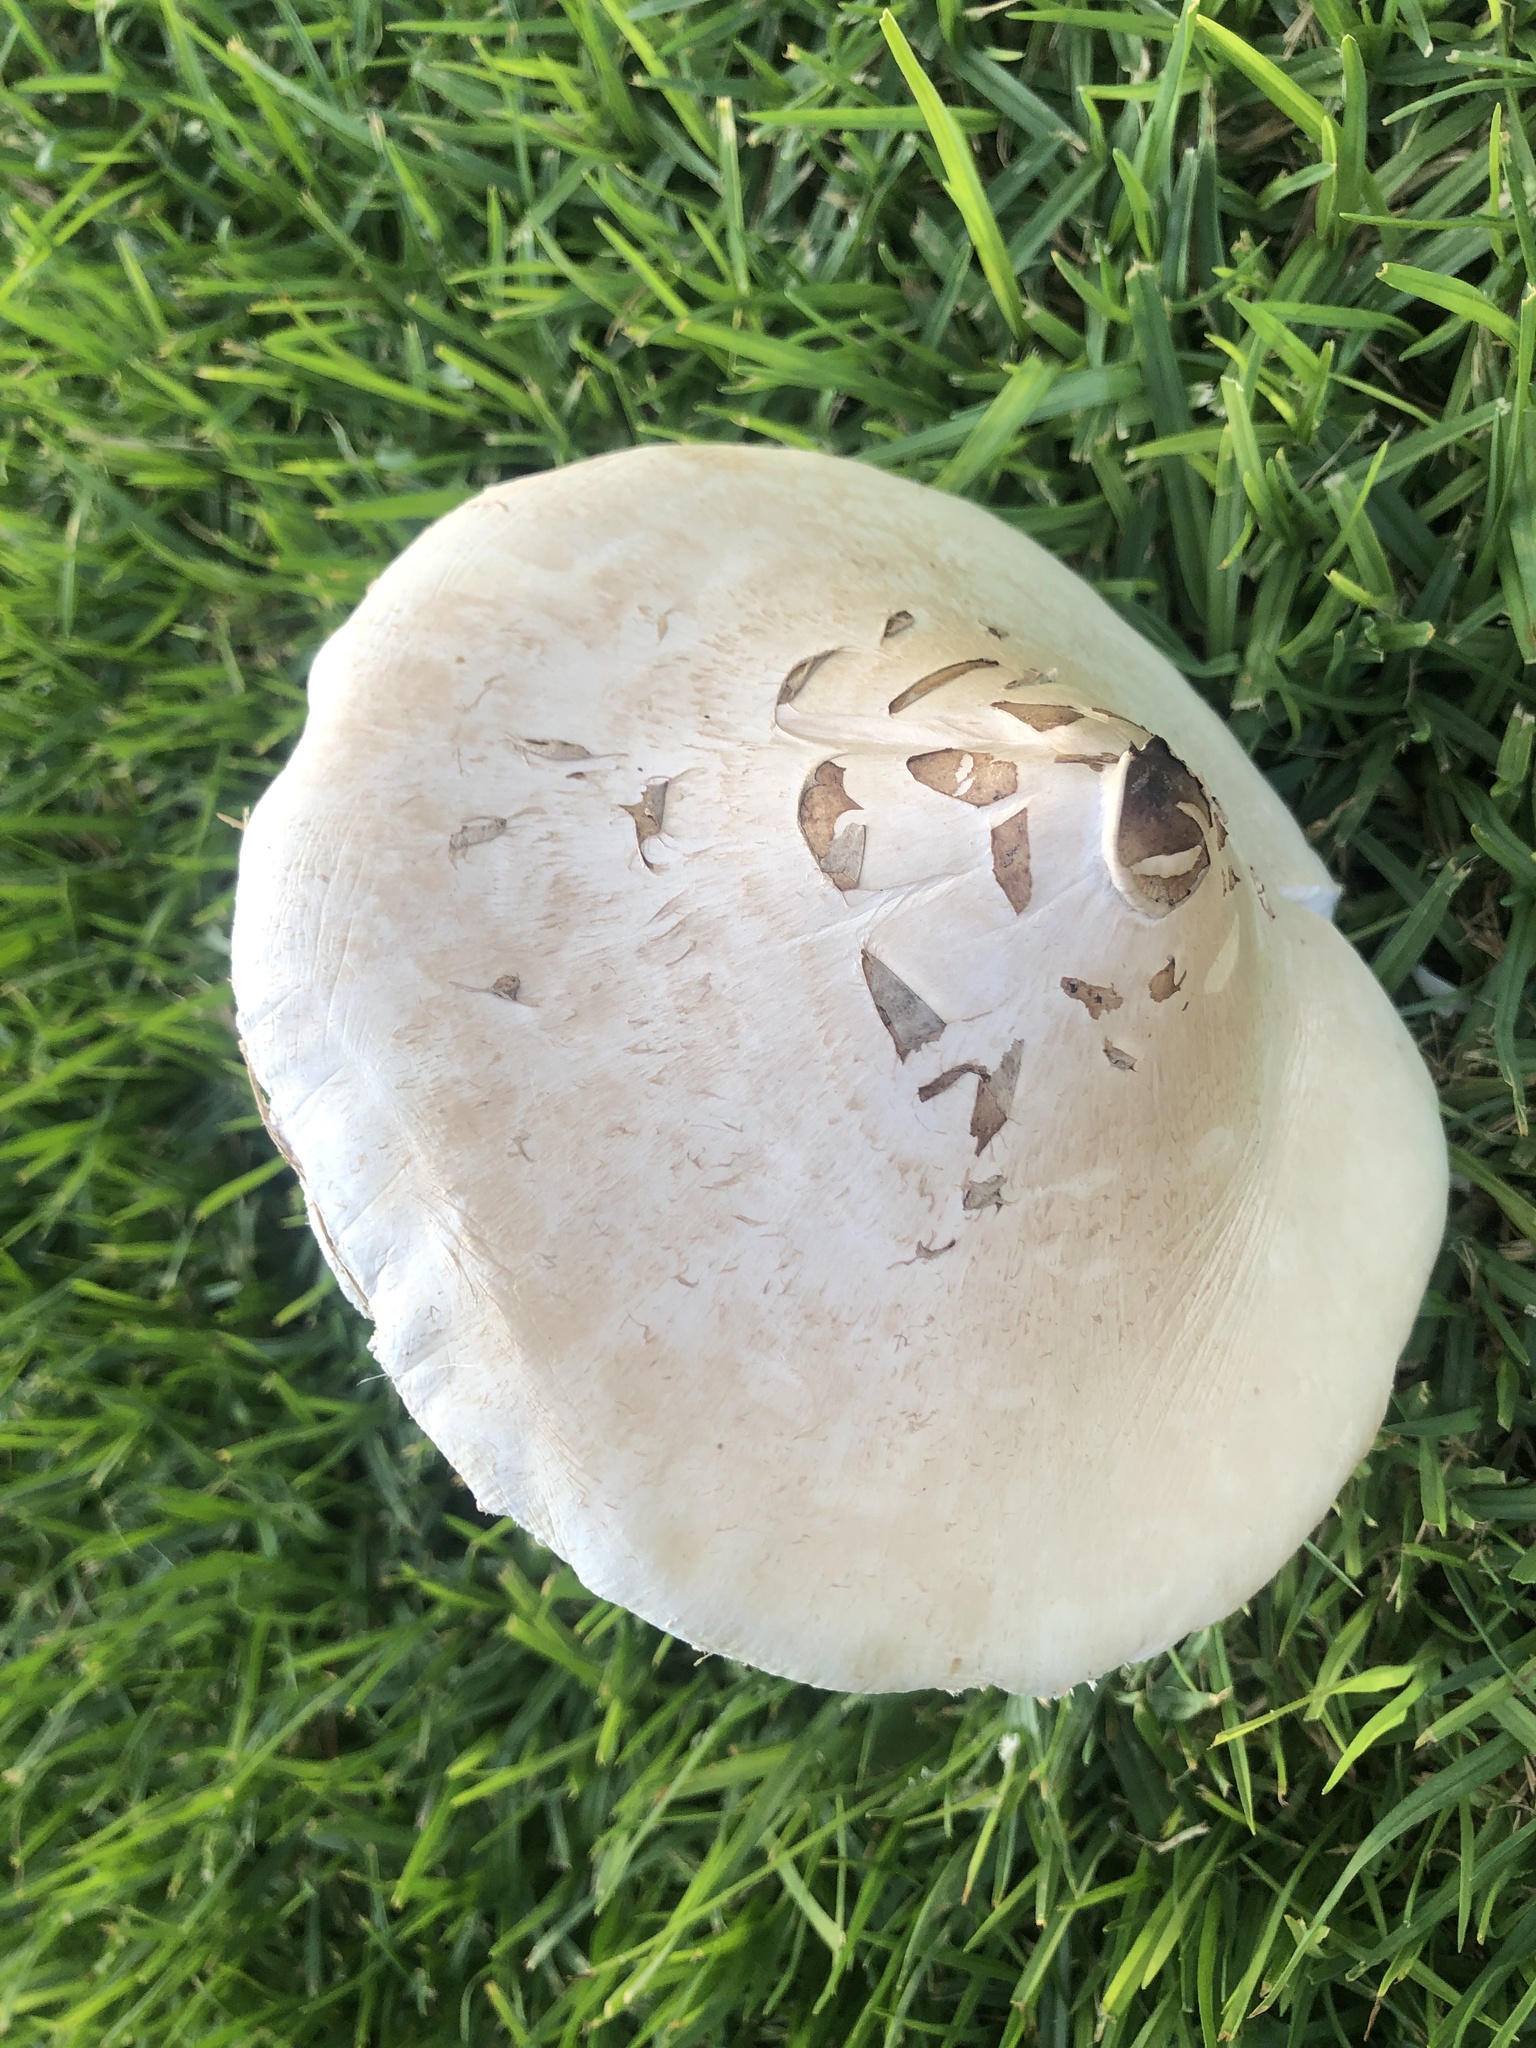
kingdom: Fungi
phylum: Basidiomycota
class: Agaricomycetes
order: Agaricales
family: Agaricaceae
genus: Chlorophyllum
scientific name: Chlorophyllum molybdites
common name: False parasol
